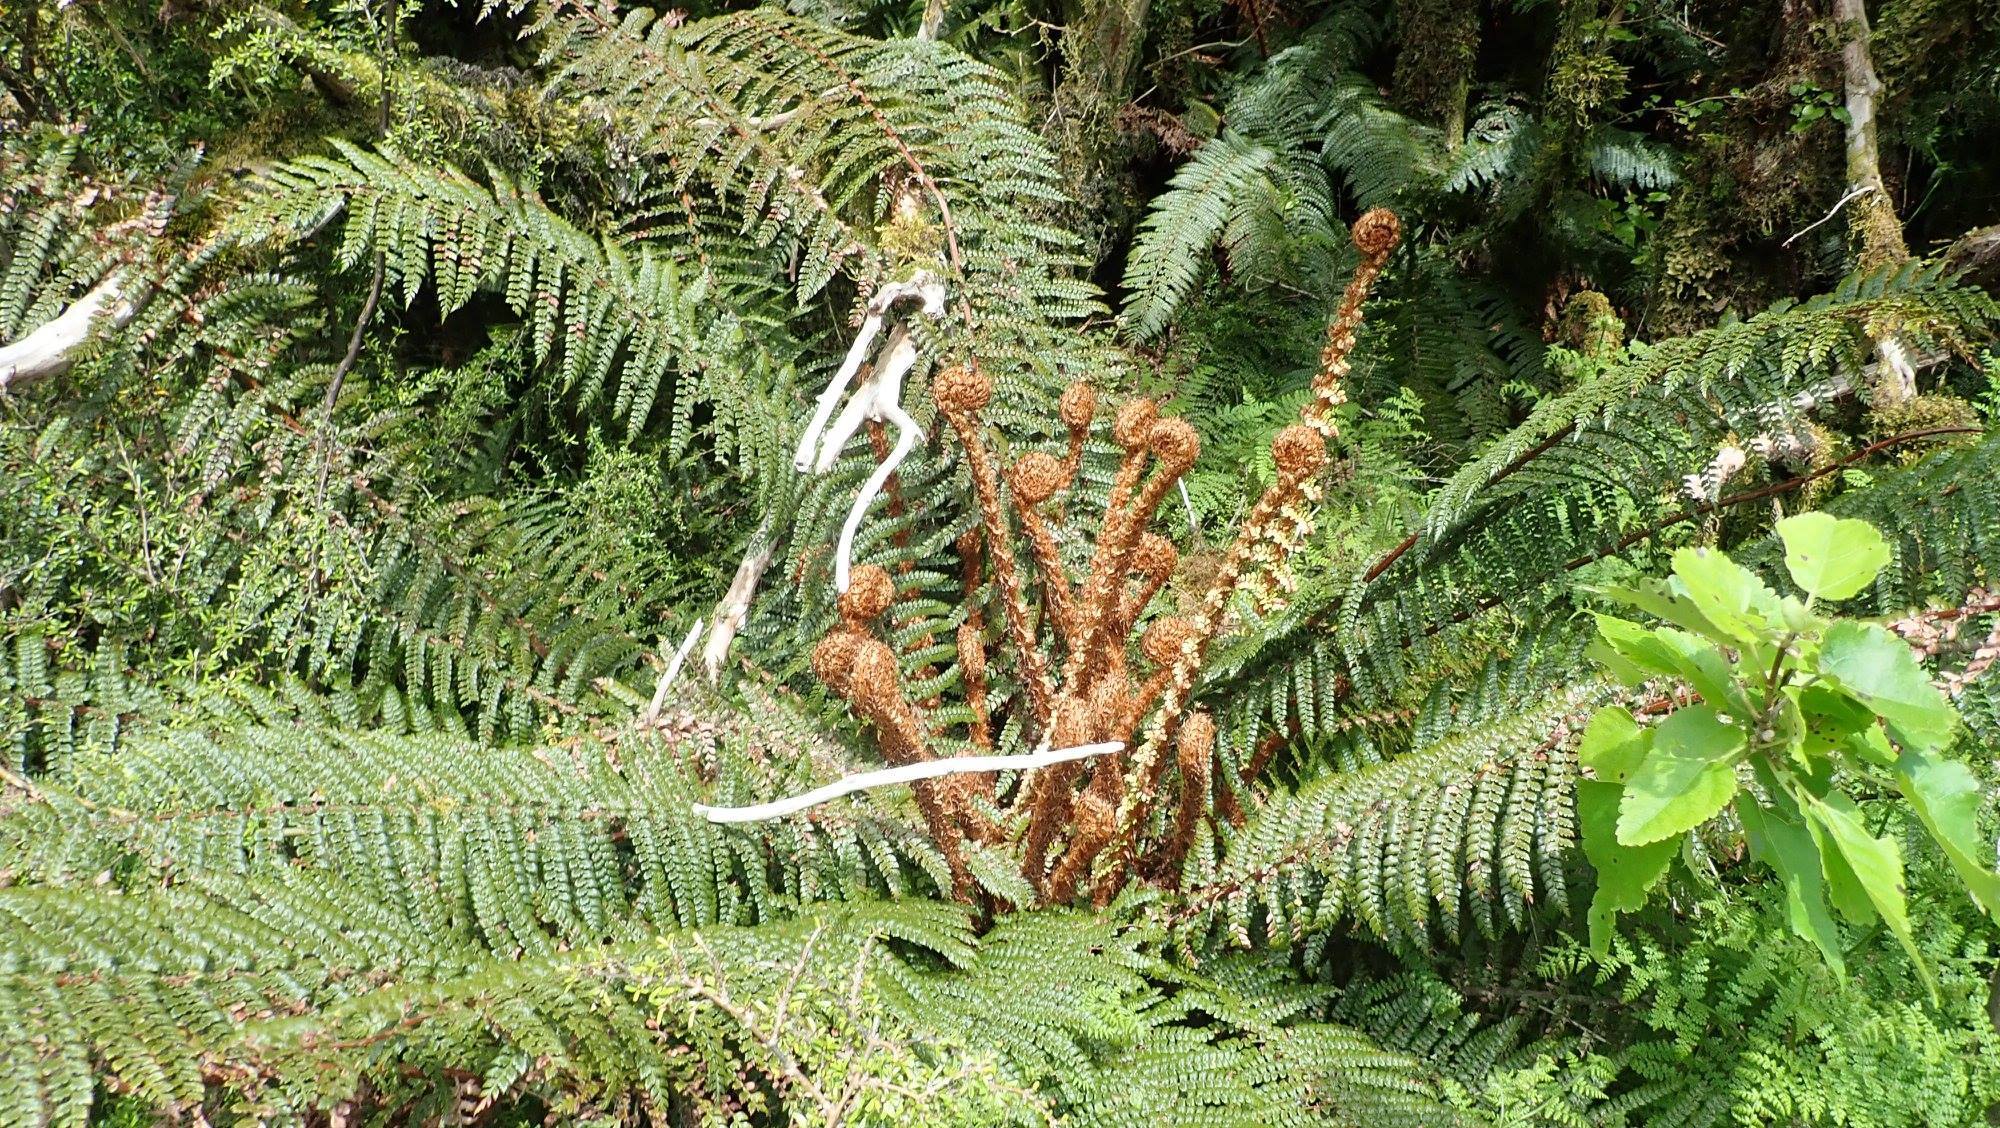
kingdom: Plantae
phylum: Tracheophyta
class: Polypodiopsida
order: Polypodiales
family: Dryopteridaceae
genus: Polystichum
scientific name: Polystichum vestitum
